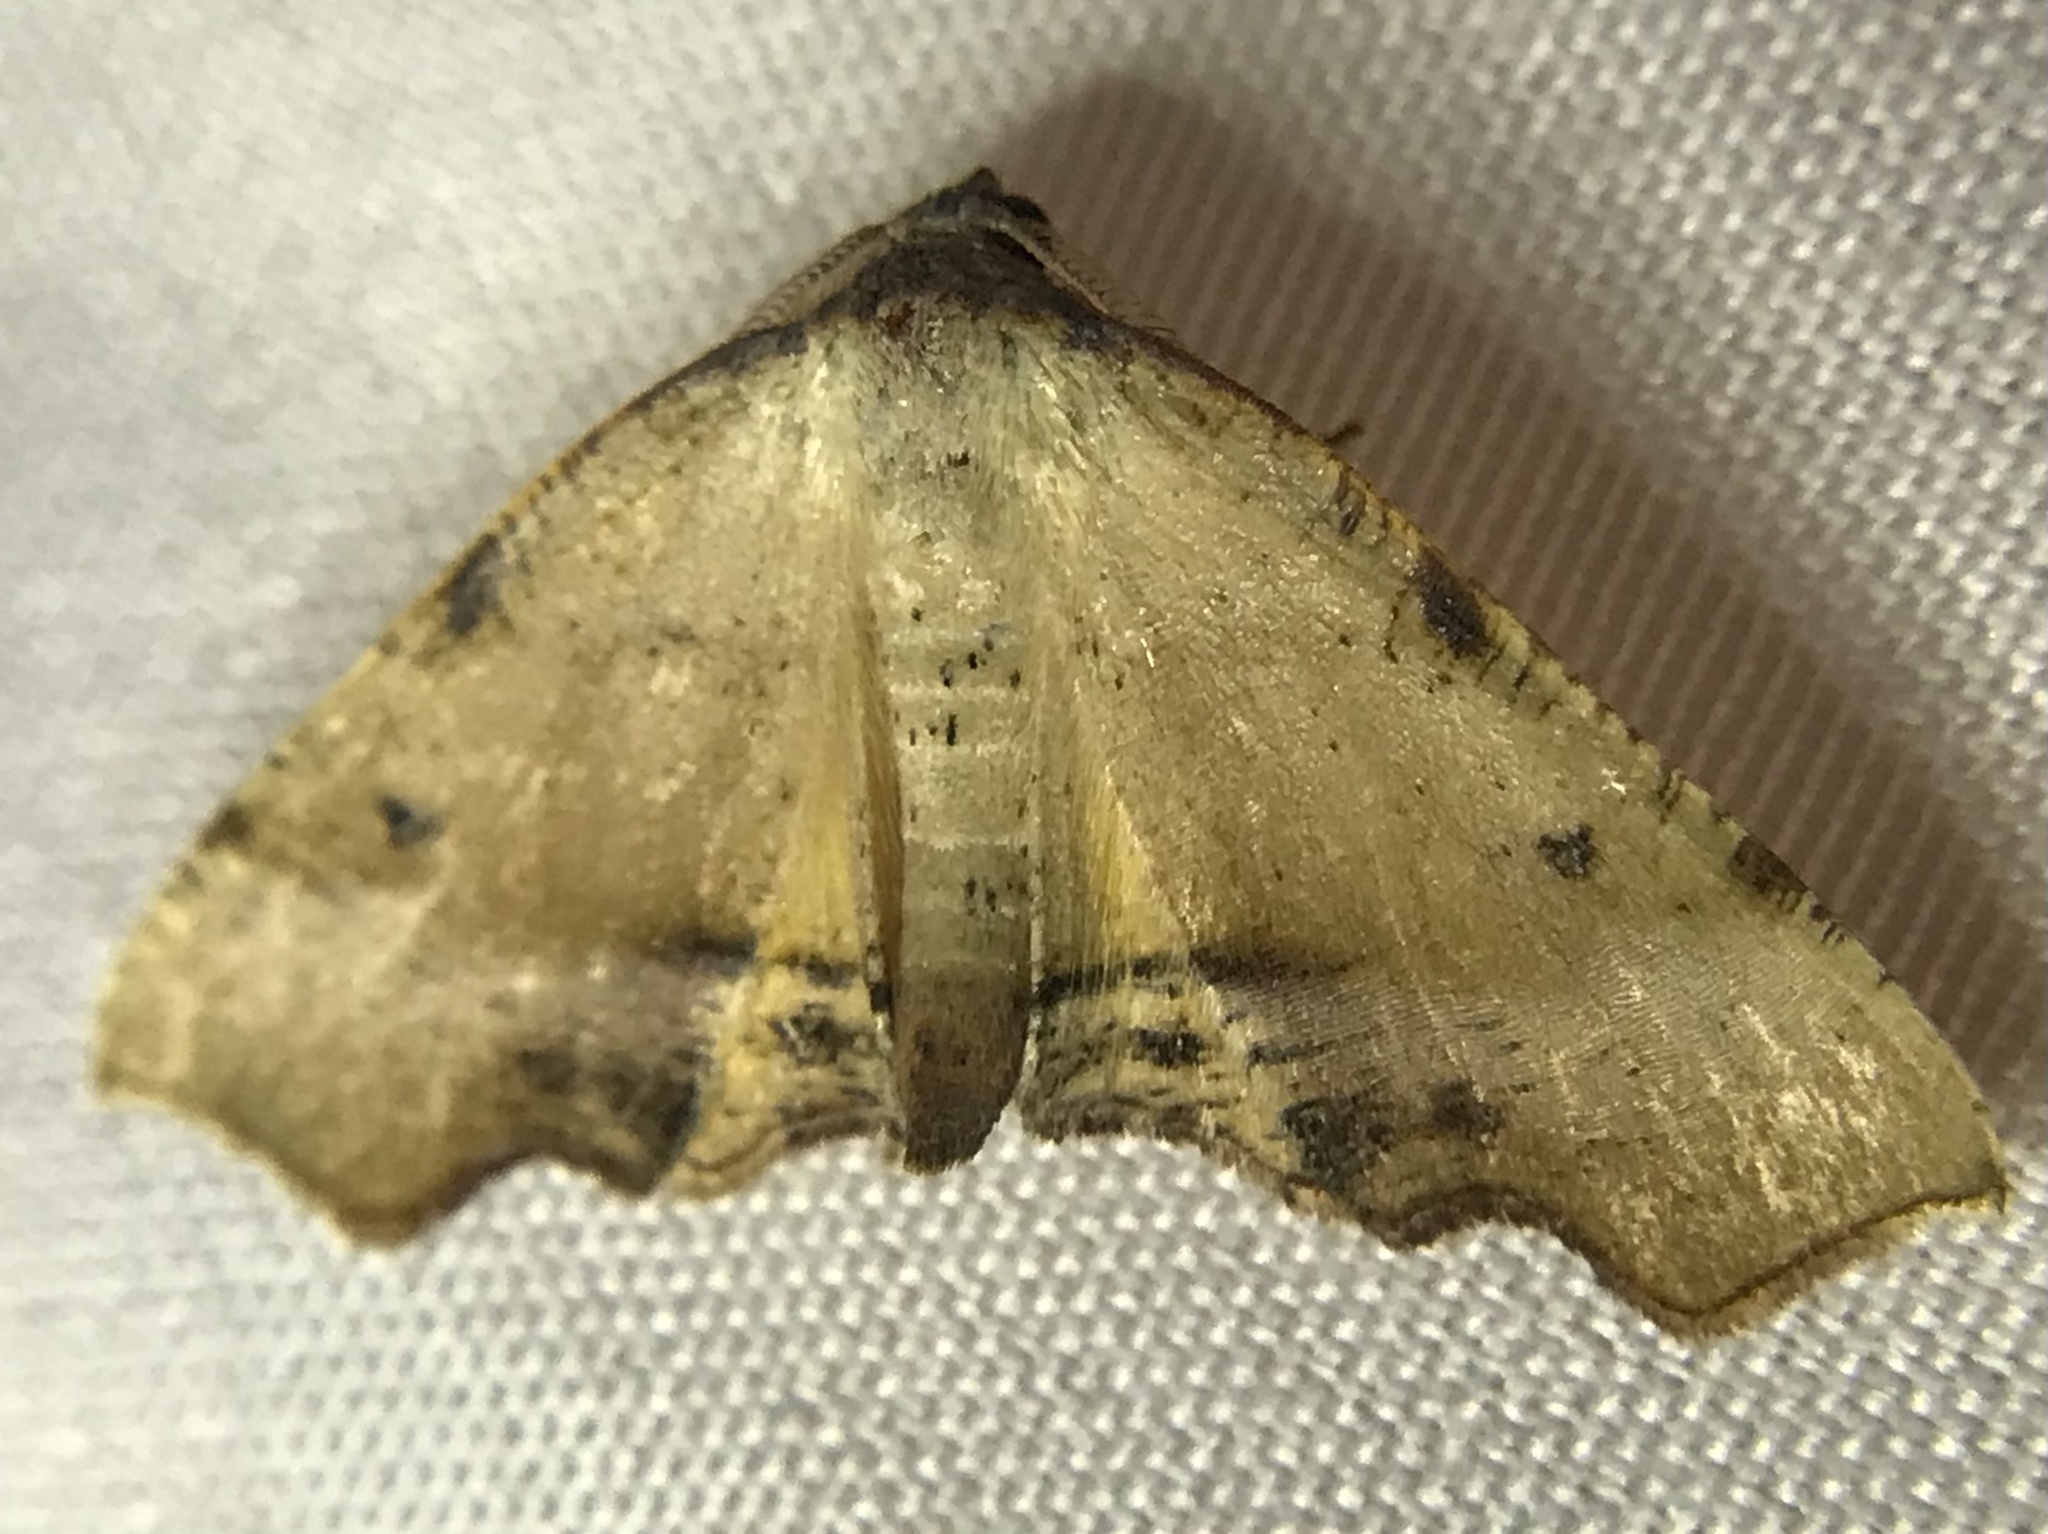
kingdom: Animalia
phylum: Arthropoda
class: Insecta
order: Lepidoptera
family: Geometridae
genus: Plagodis
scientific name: Plagodis fervidaria
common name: Fervid plagodis
